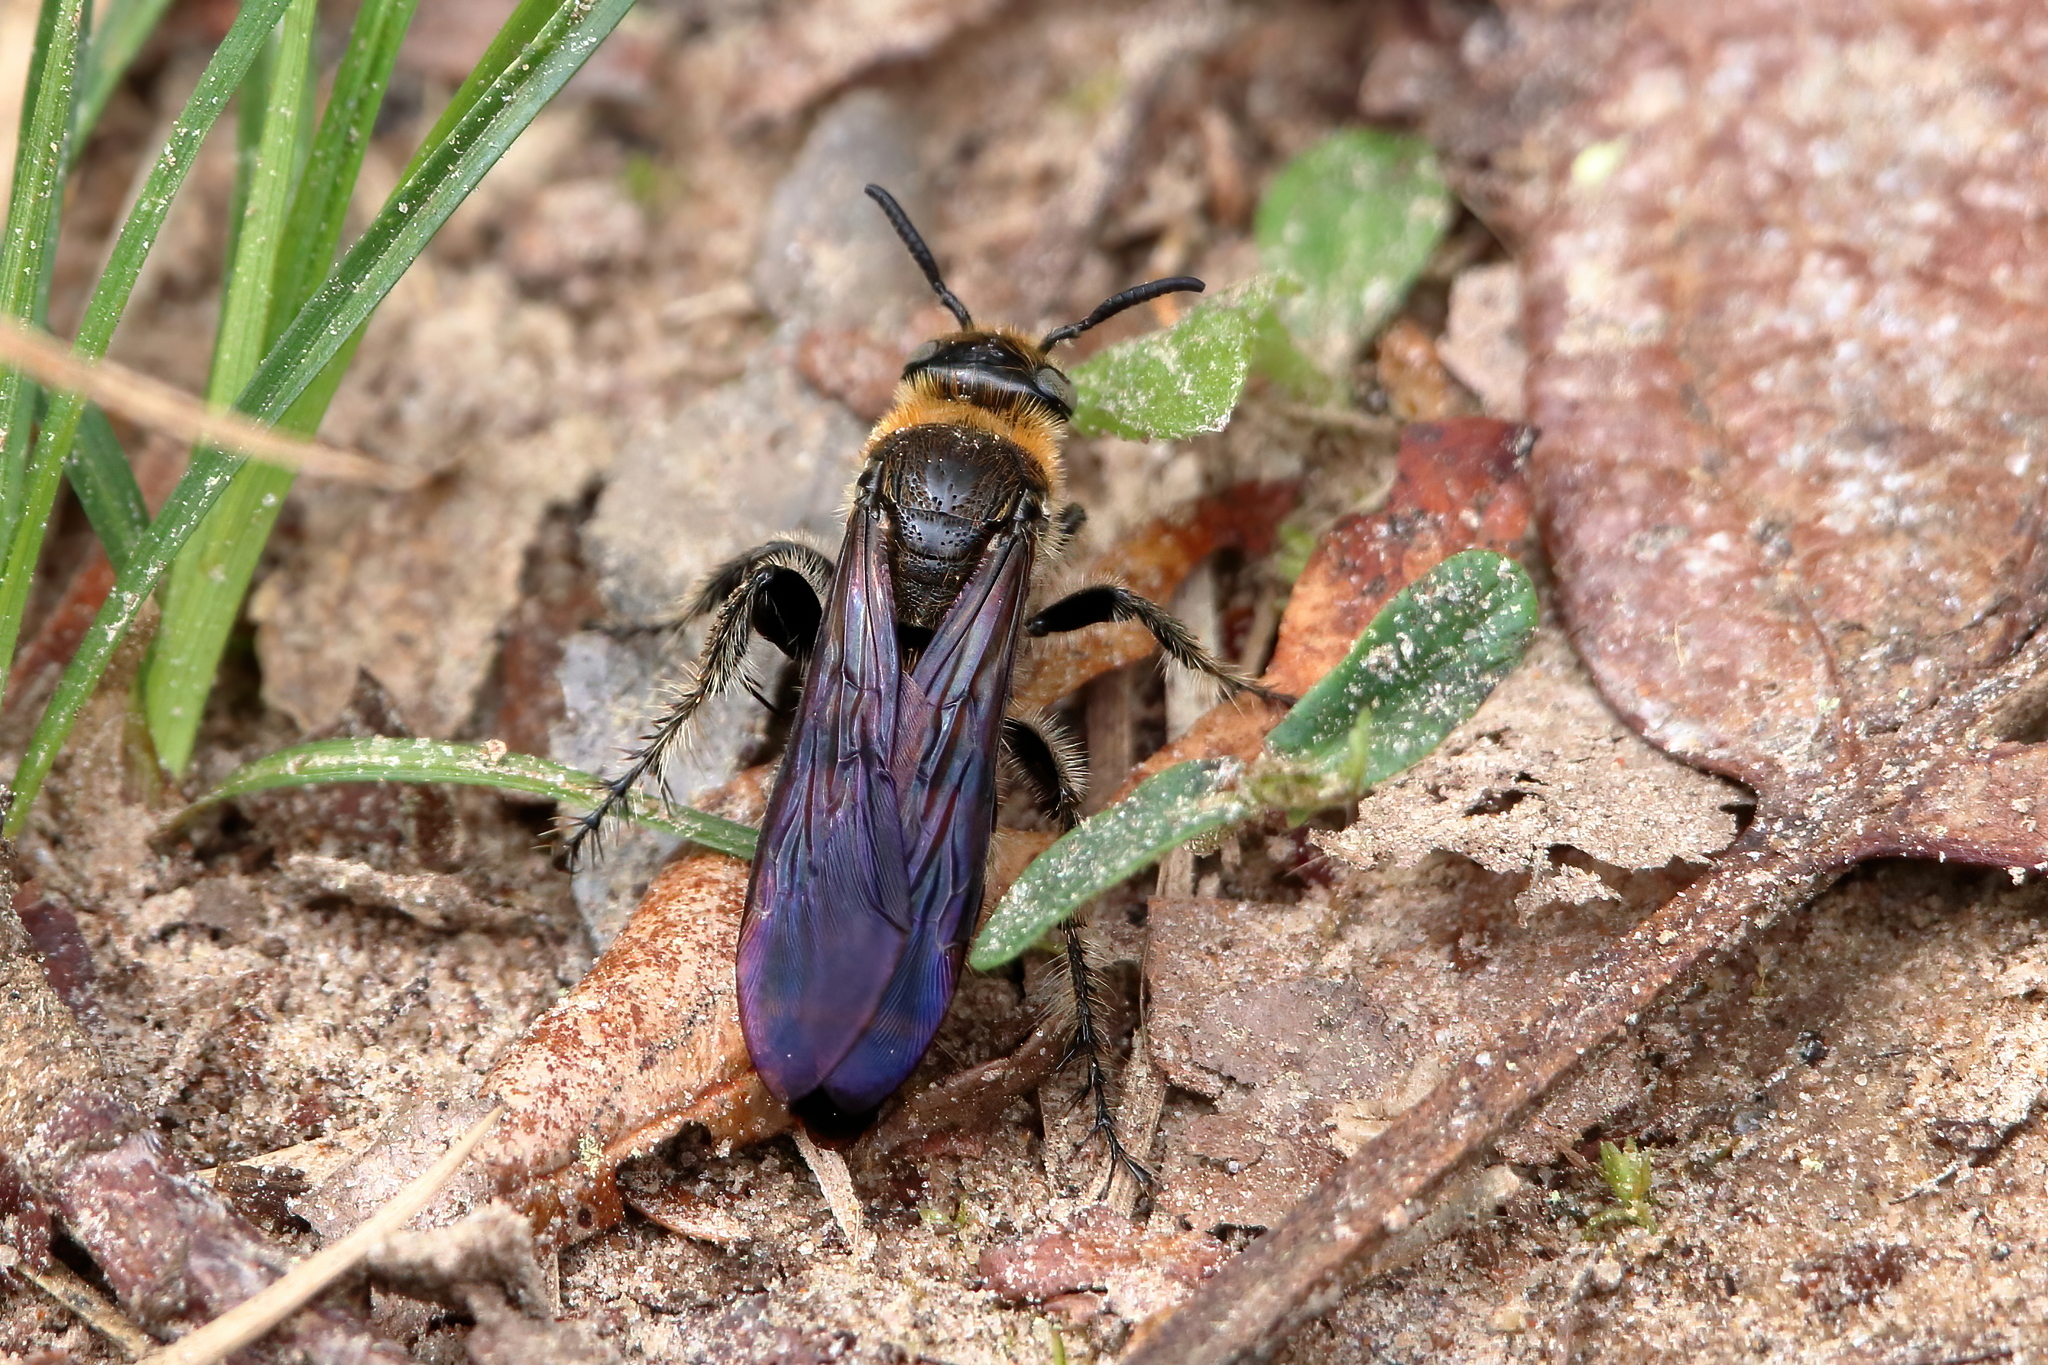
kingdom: Animalia
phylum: Arthropoda
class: Insecta
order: Hymenoptera
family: Scoliidae
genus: Dielis
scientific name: Dielis
